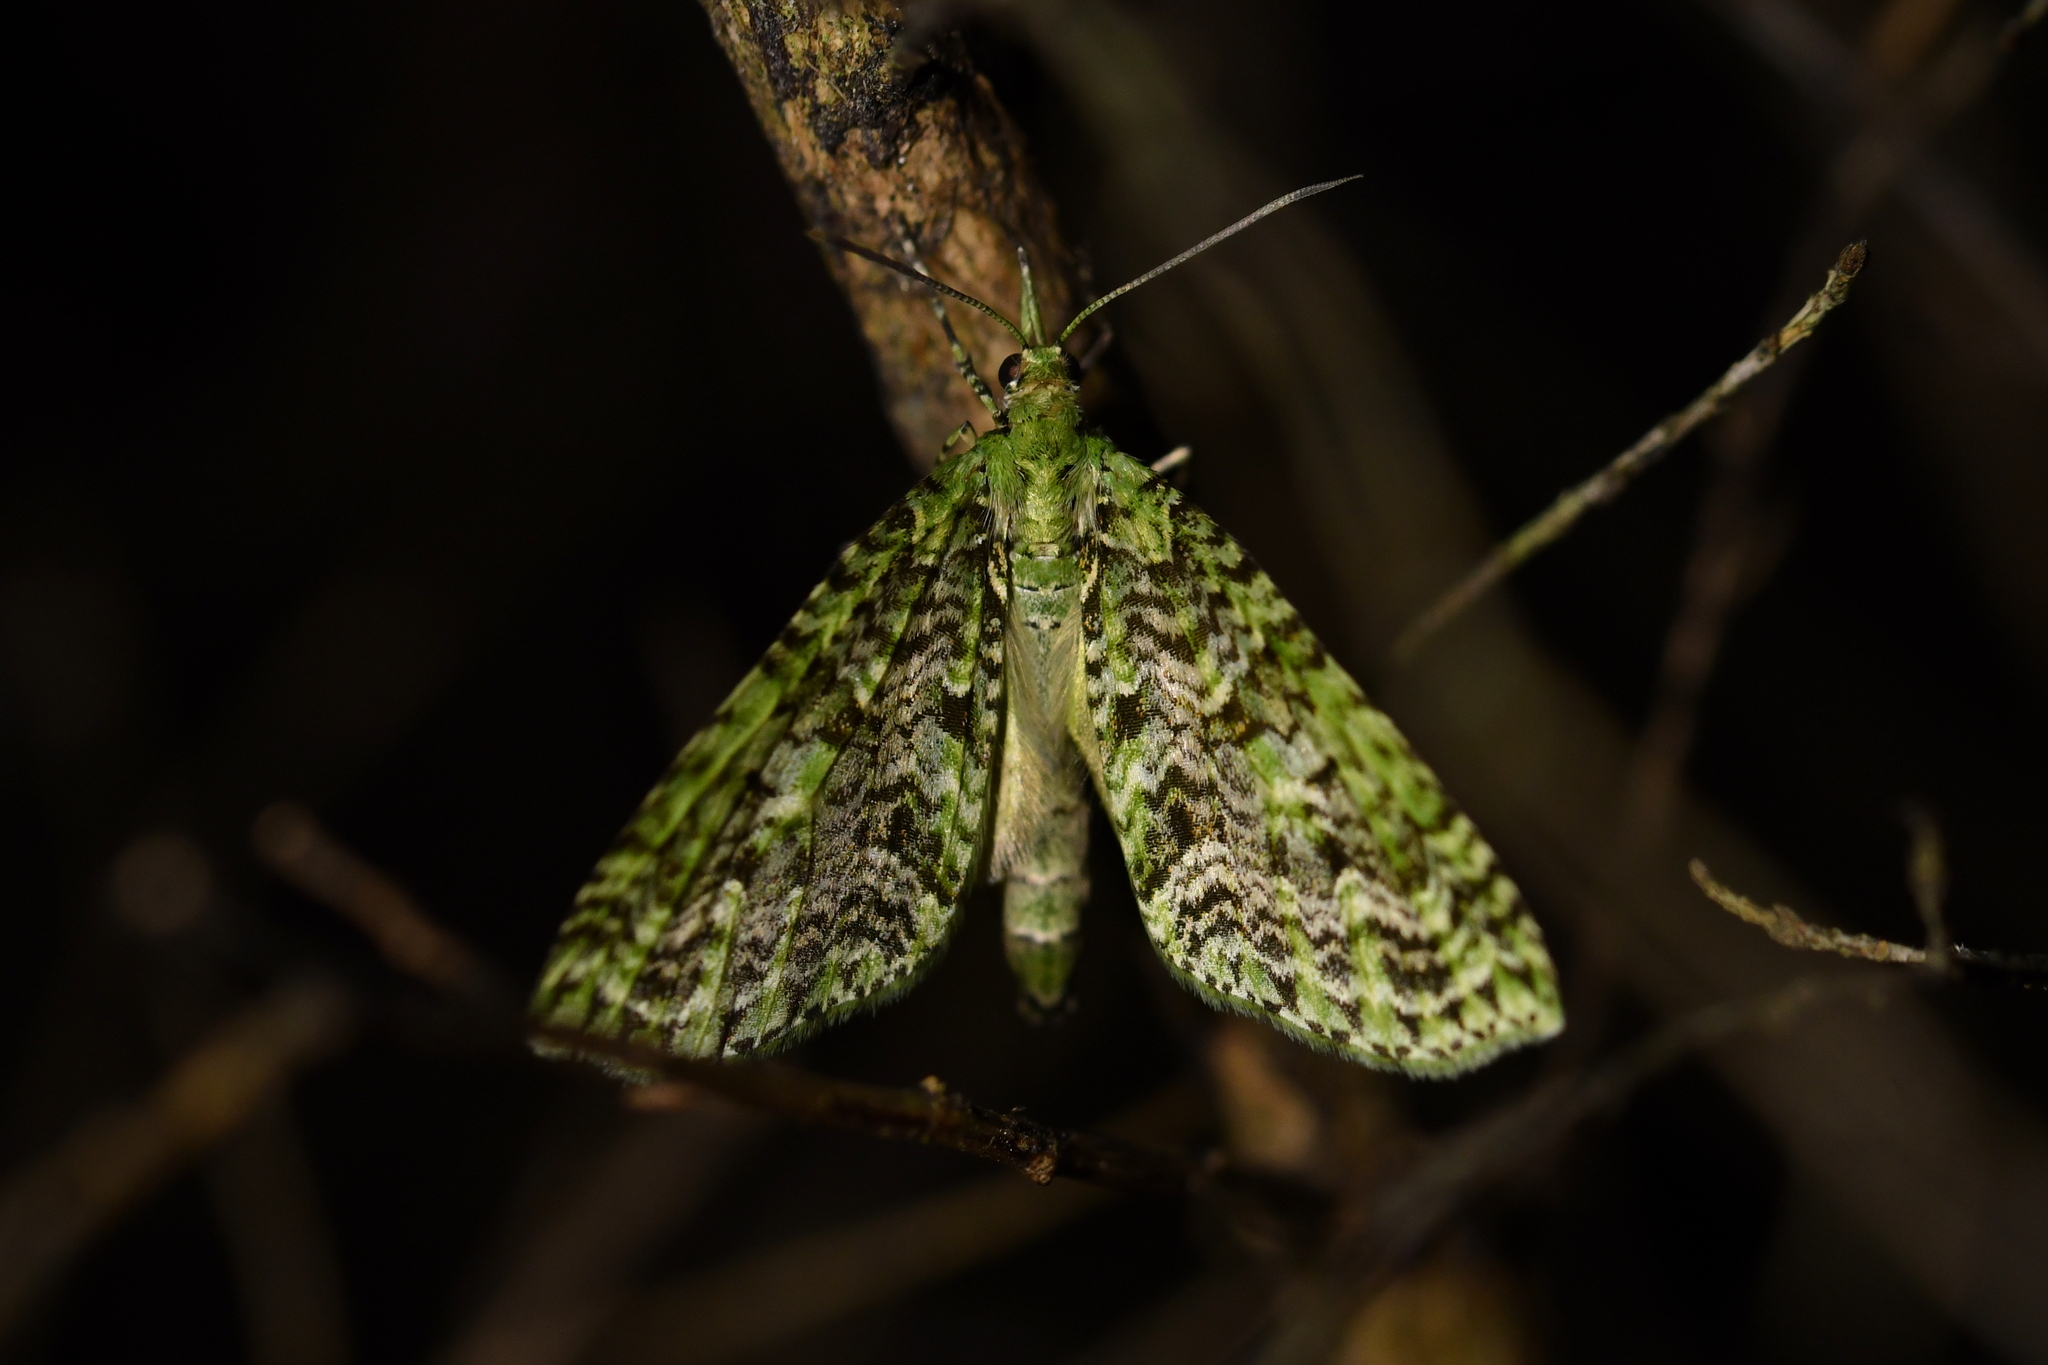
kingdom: Animalia
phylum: Arthropoda
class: Insecta
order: Lepidoptera
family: Geometridae
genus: Tatosoma
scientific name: Tatosoma tipulata
